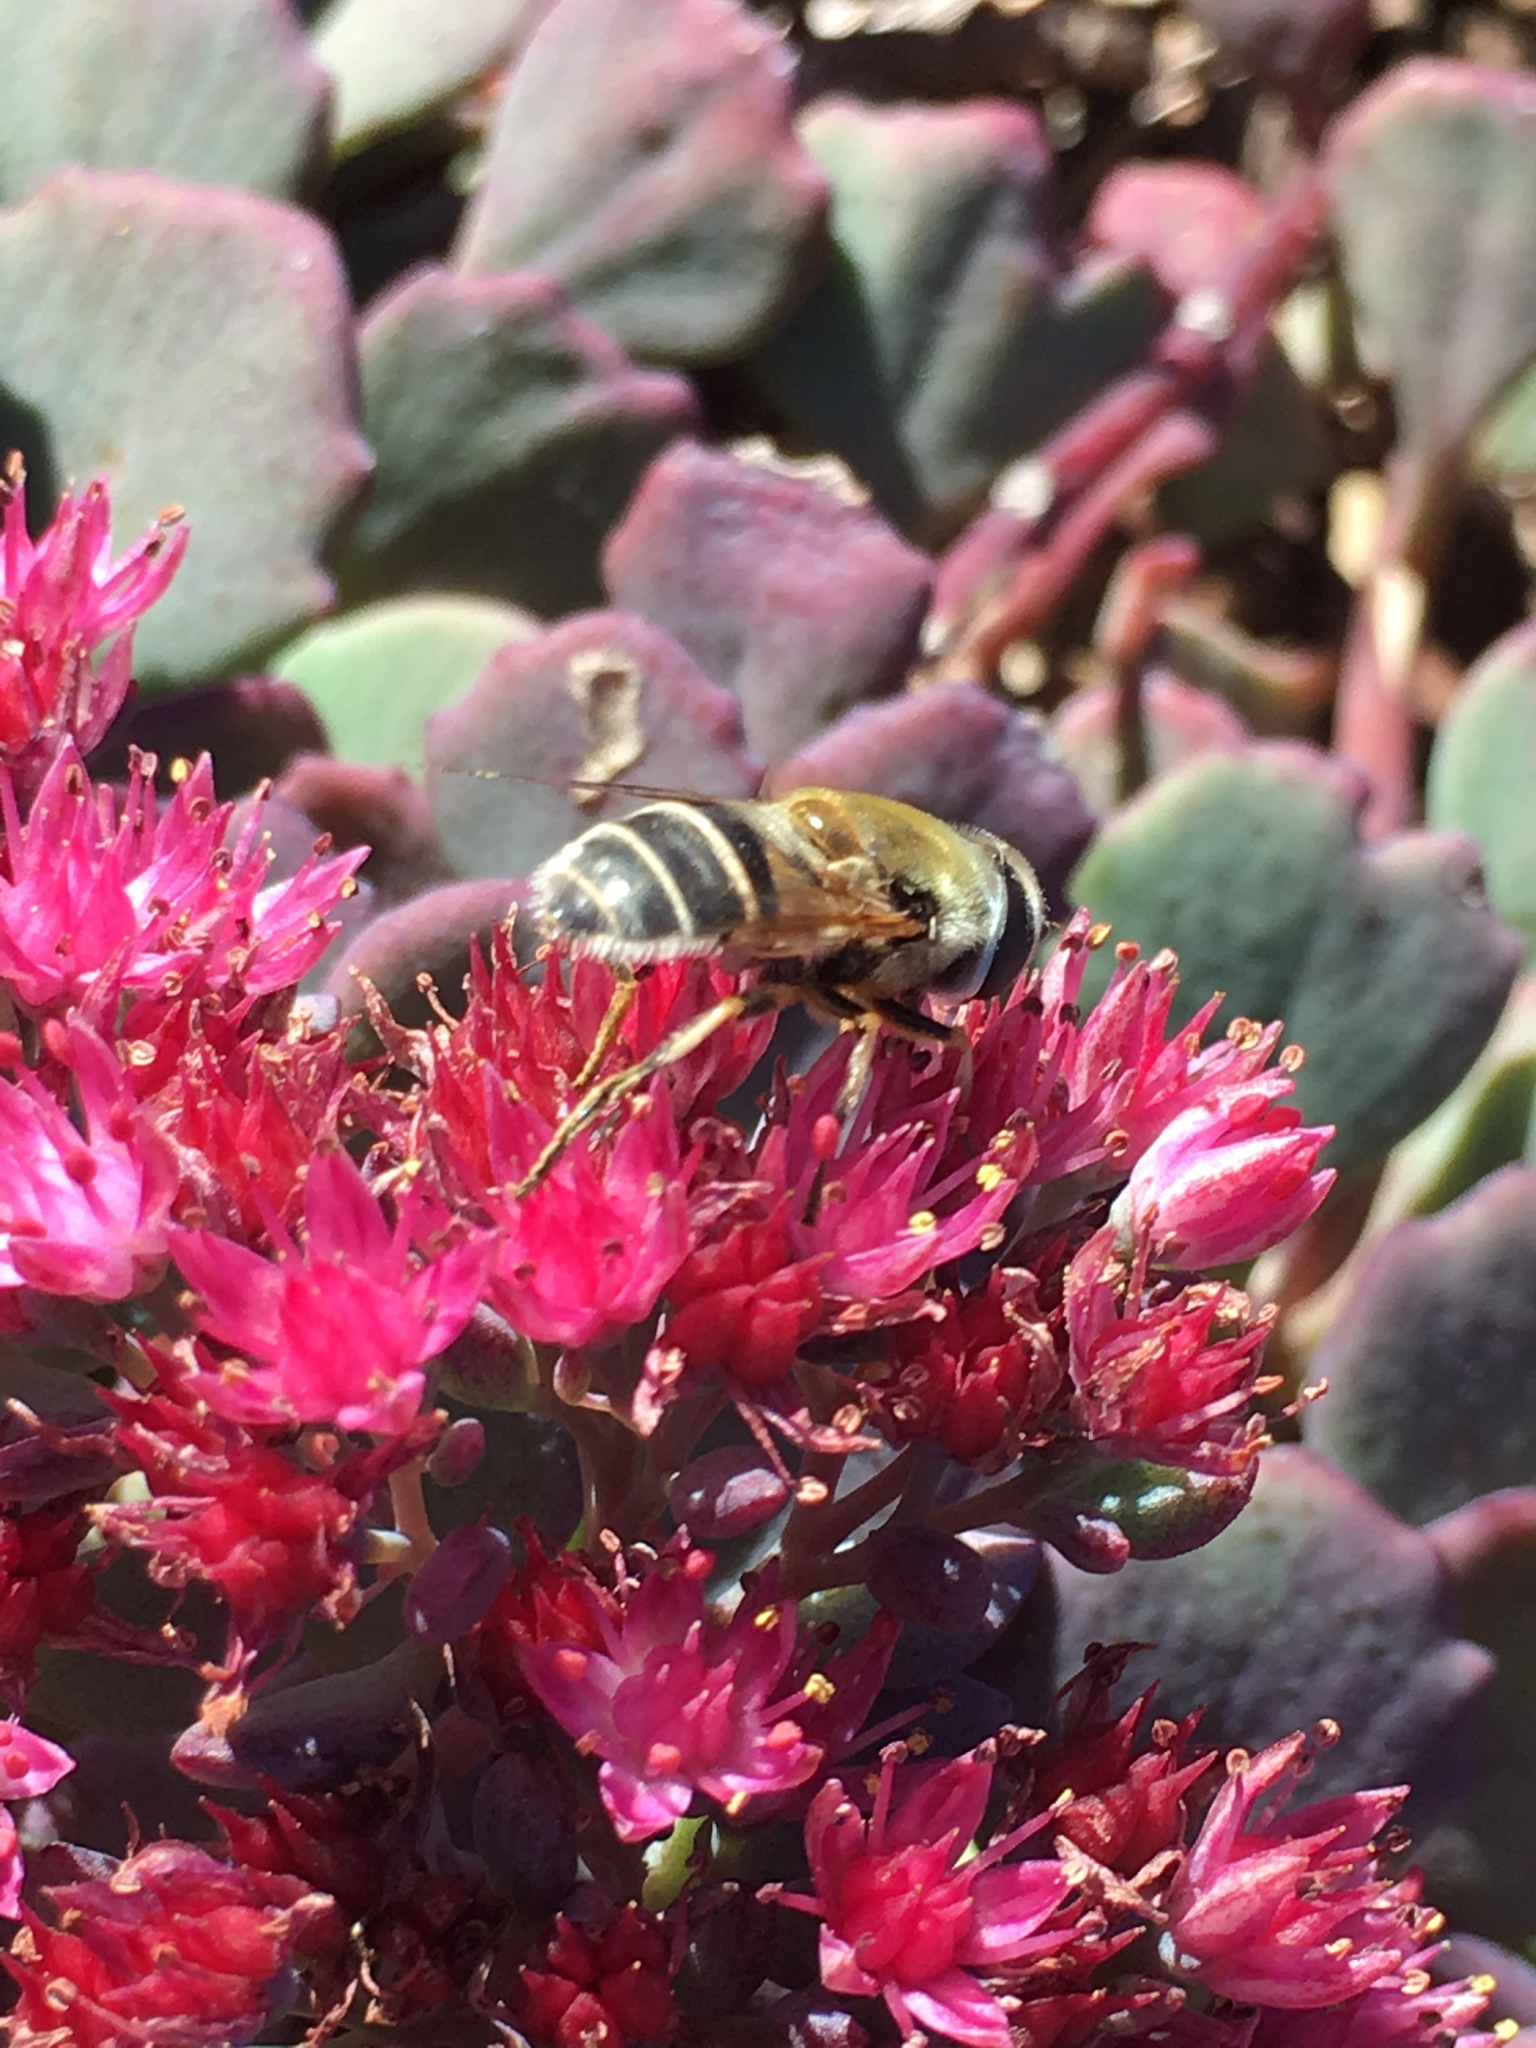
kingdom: Animalia
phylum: Arthropoda
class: Insecta
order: Diptera
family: Syrphidae
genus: Eristalis
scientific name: Eristalis stipator
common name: Yellow-shouldered drone fly
